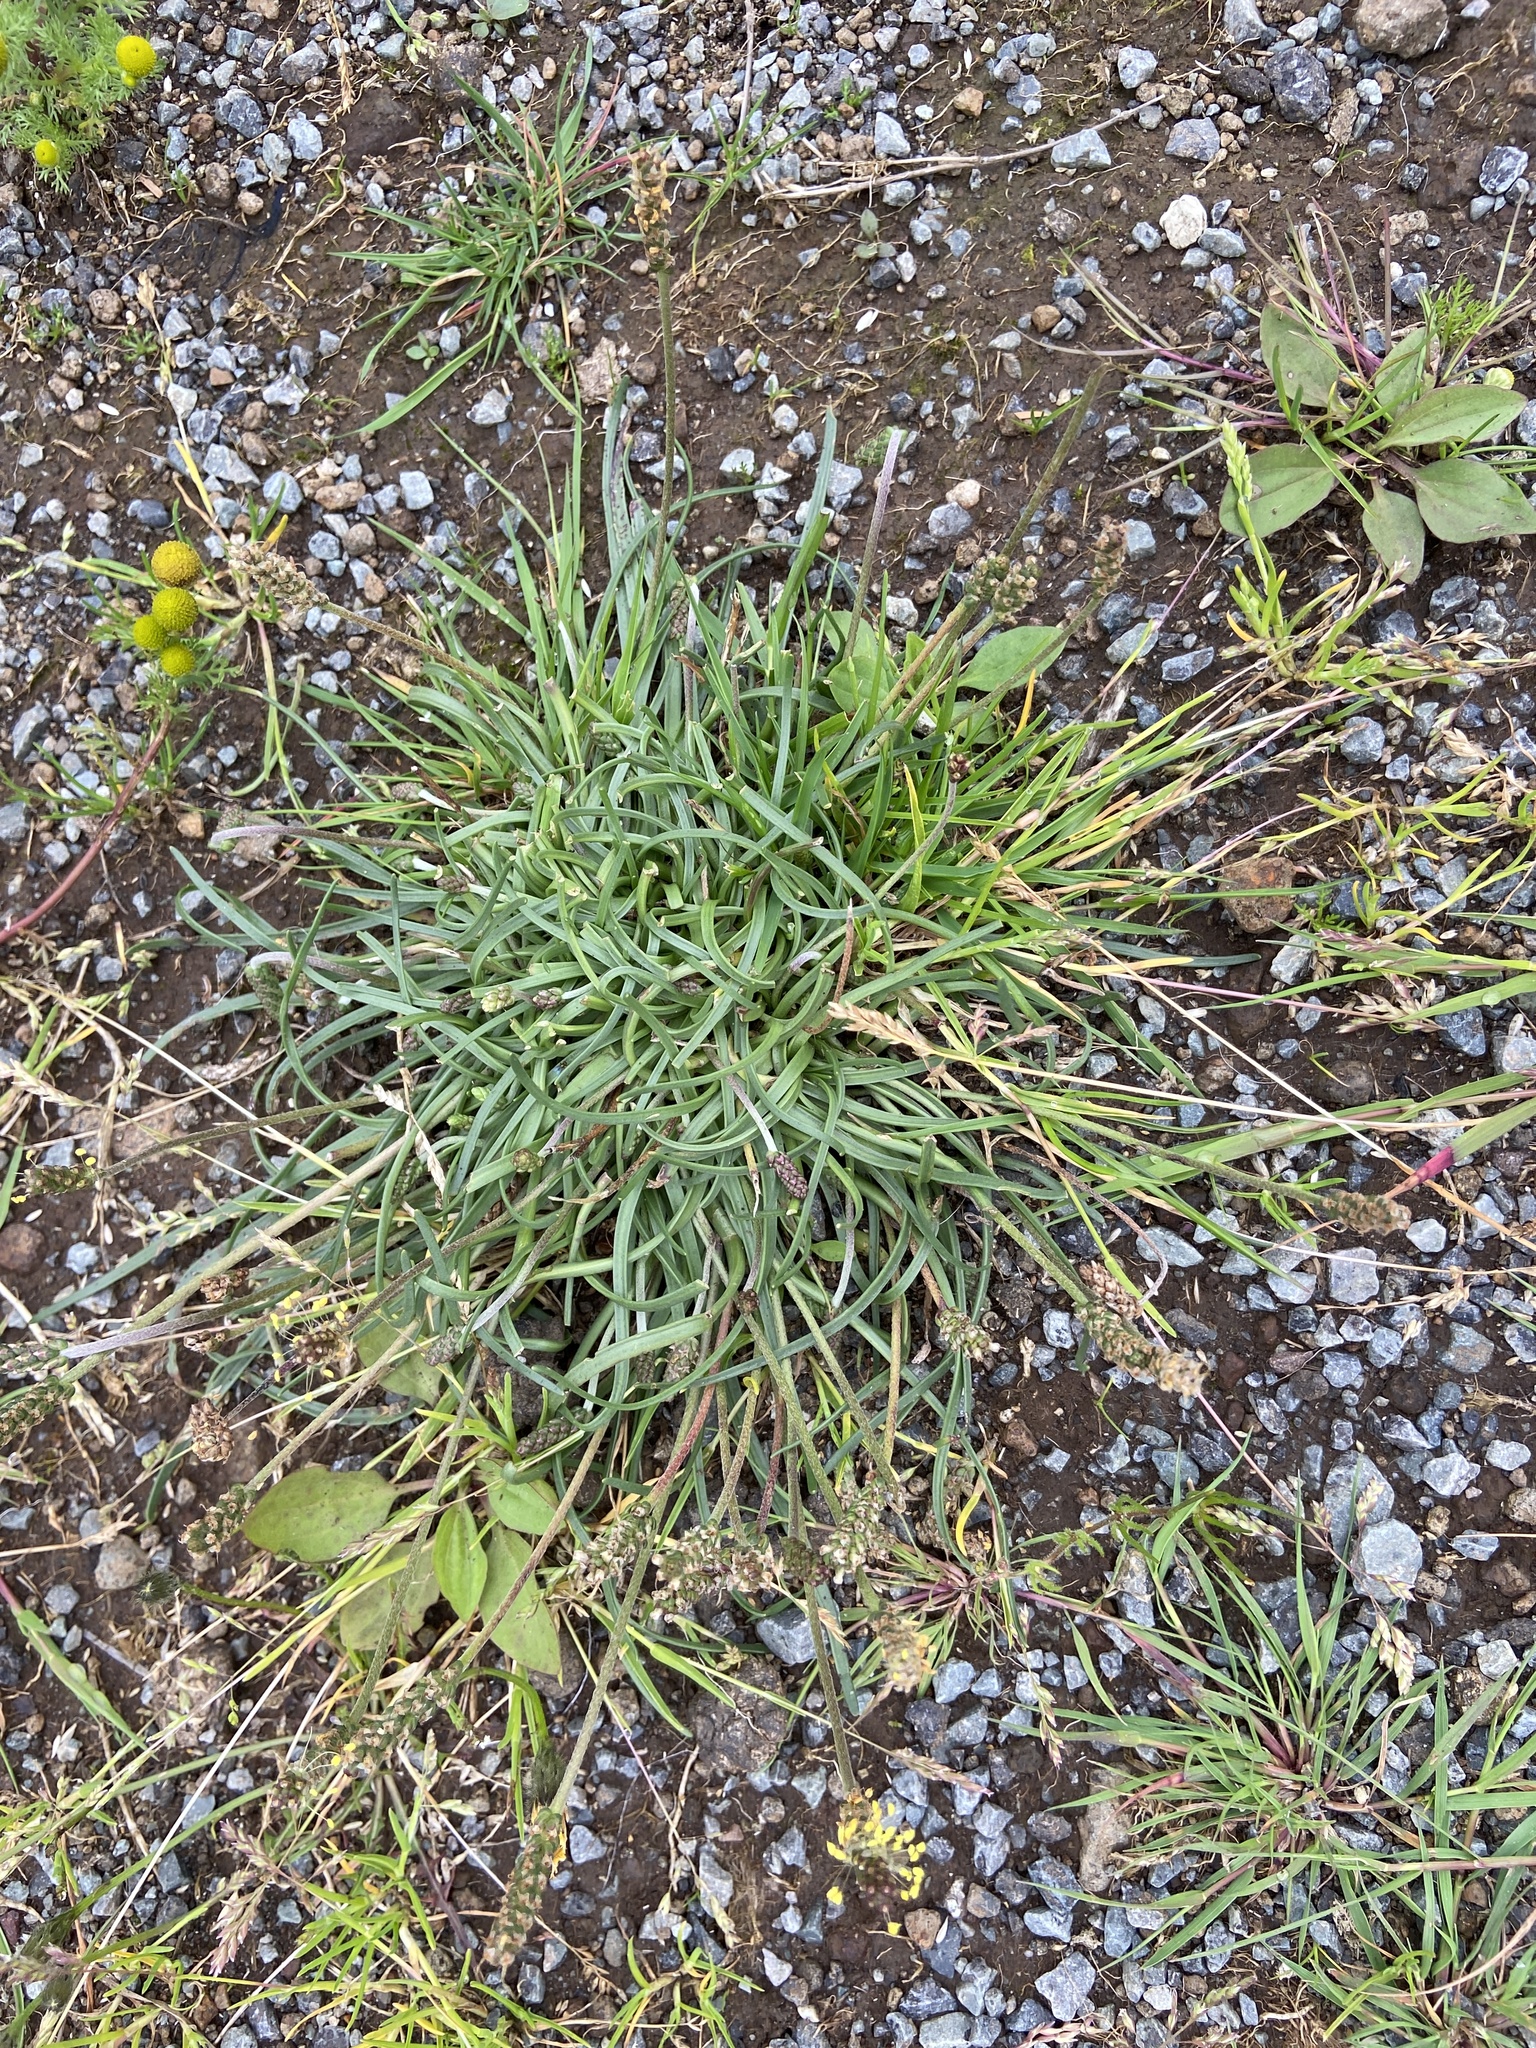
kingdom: Plantae
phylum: Tracheophyta
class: Magnoliopsida
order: Lamiales
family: Plantaginaceae
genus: Plantago
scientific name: Plantago maritima
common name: Sea plantain
